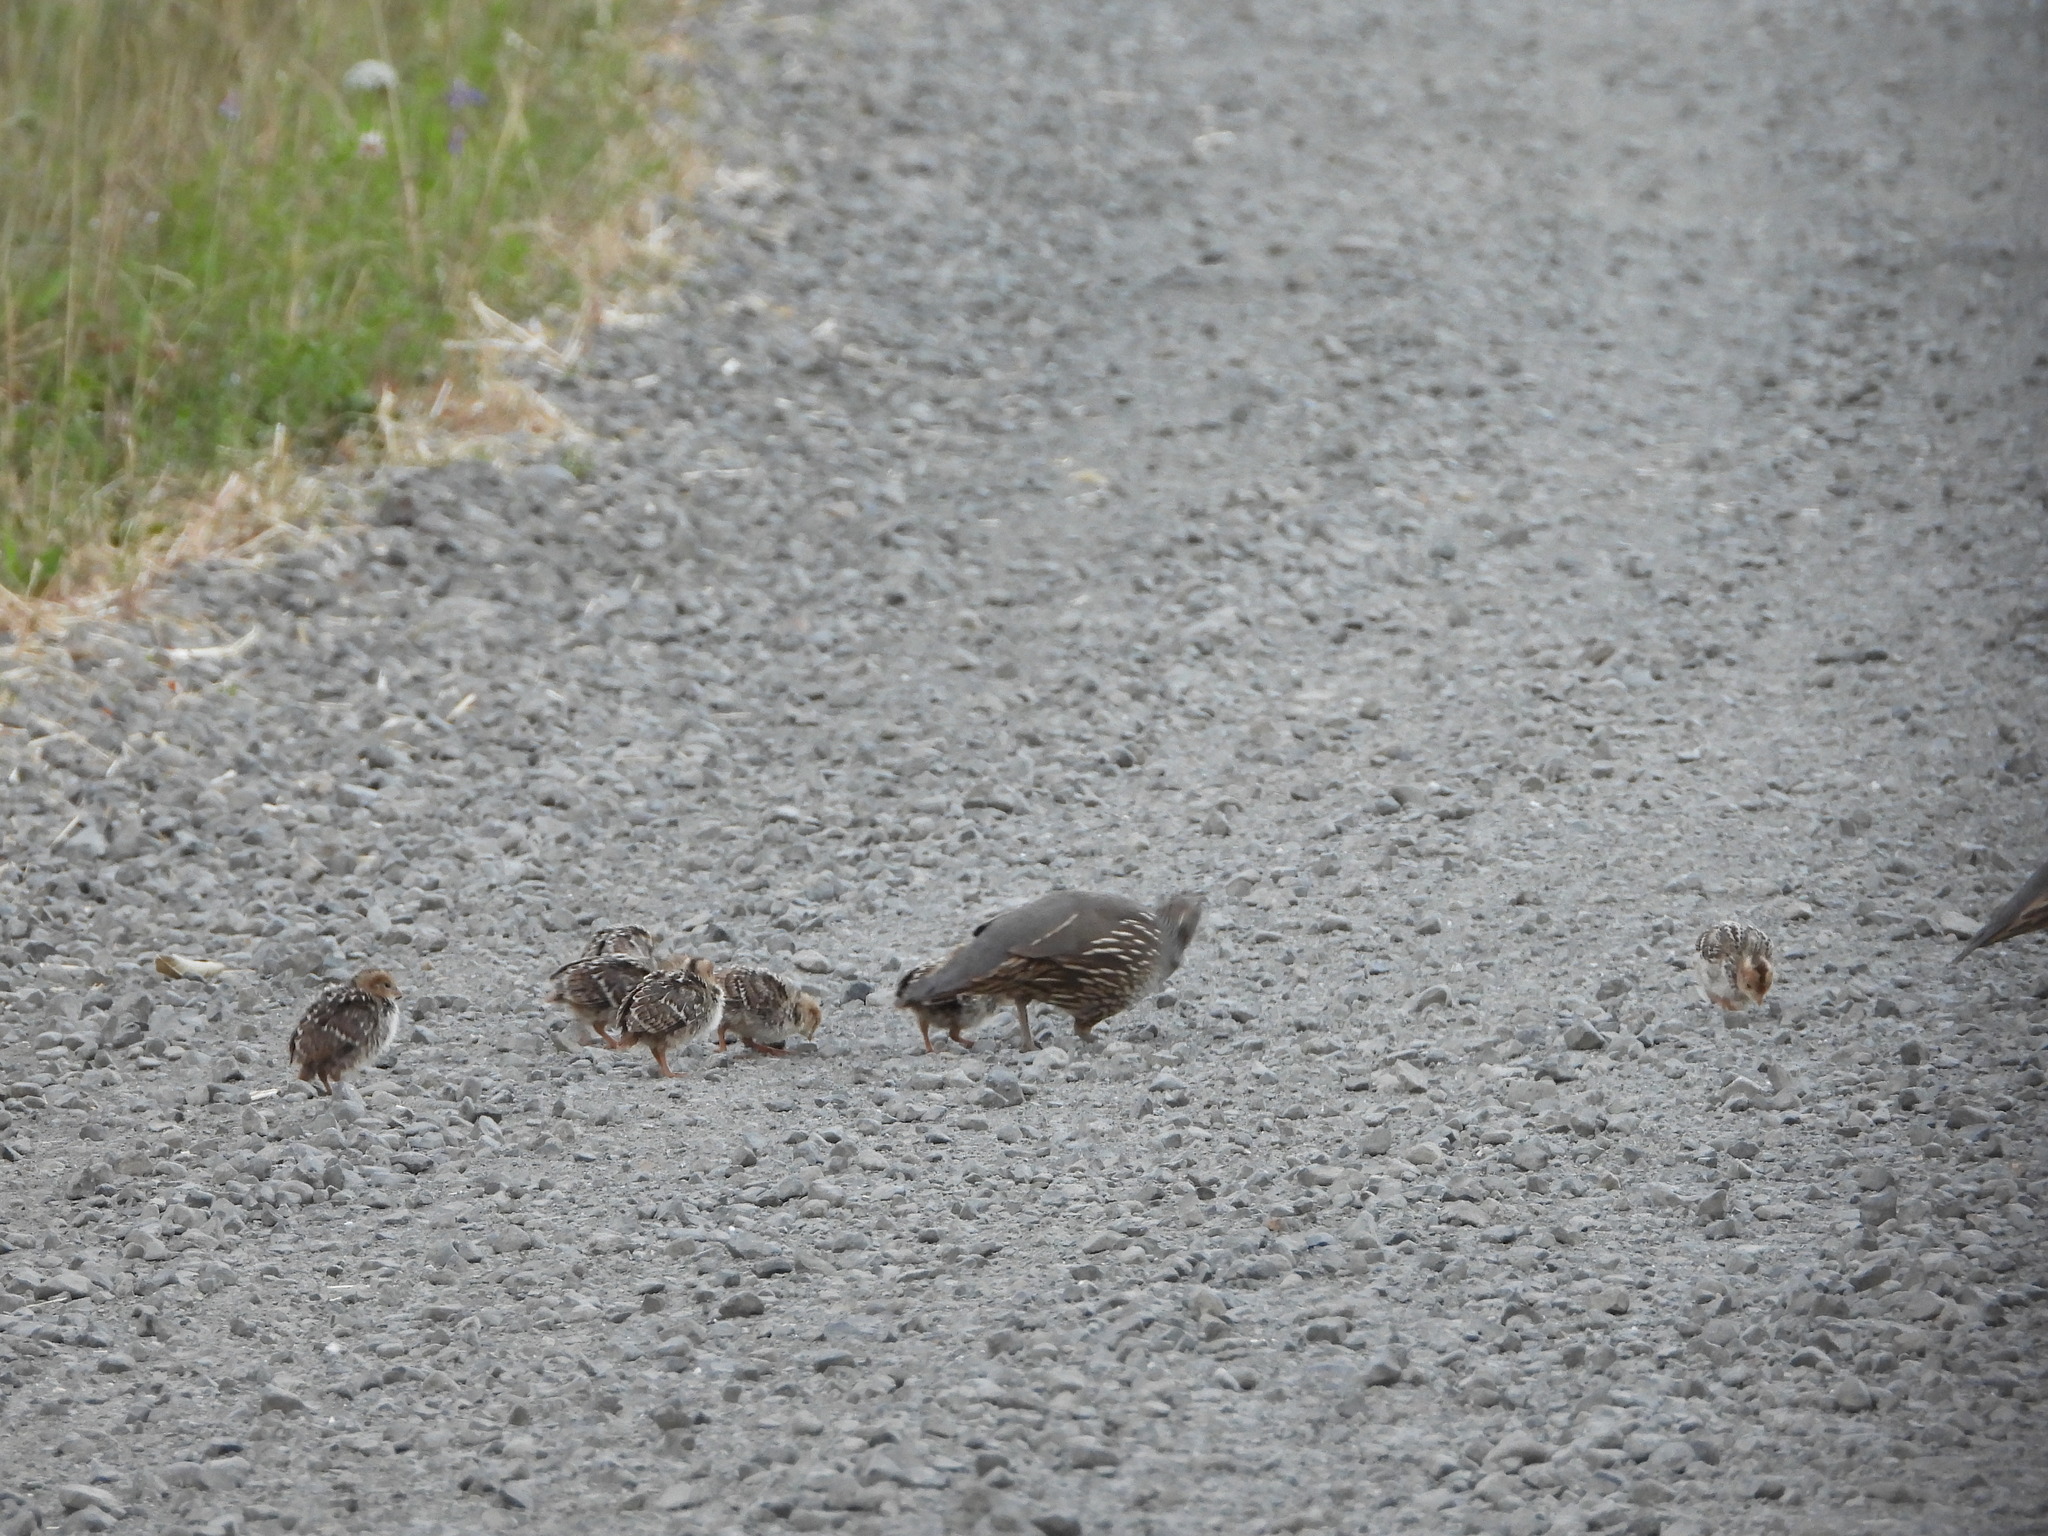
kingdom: Animalia
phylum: Chordata
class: Aves
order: Galliformes
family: Odontophoridae
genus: Callipepla
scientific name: Callipepla californica
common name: California quail
